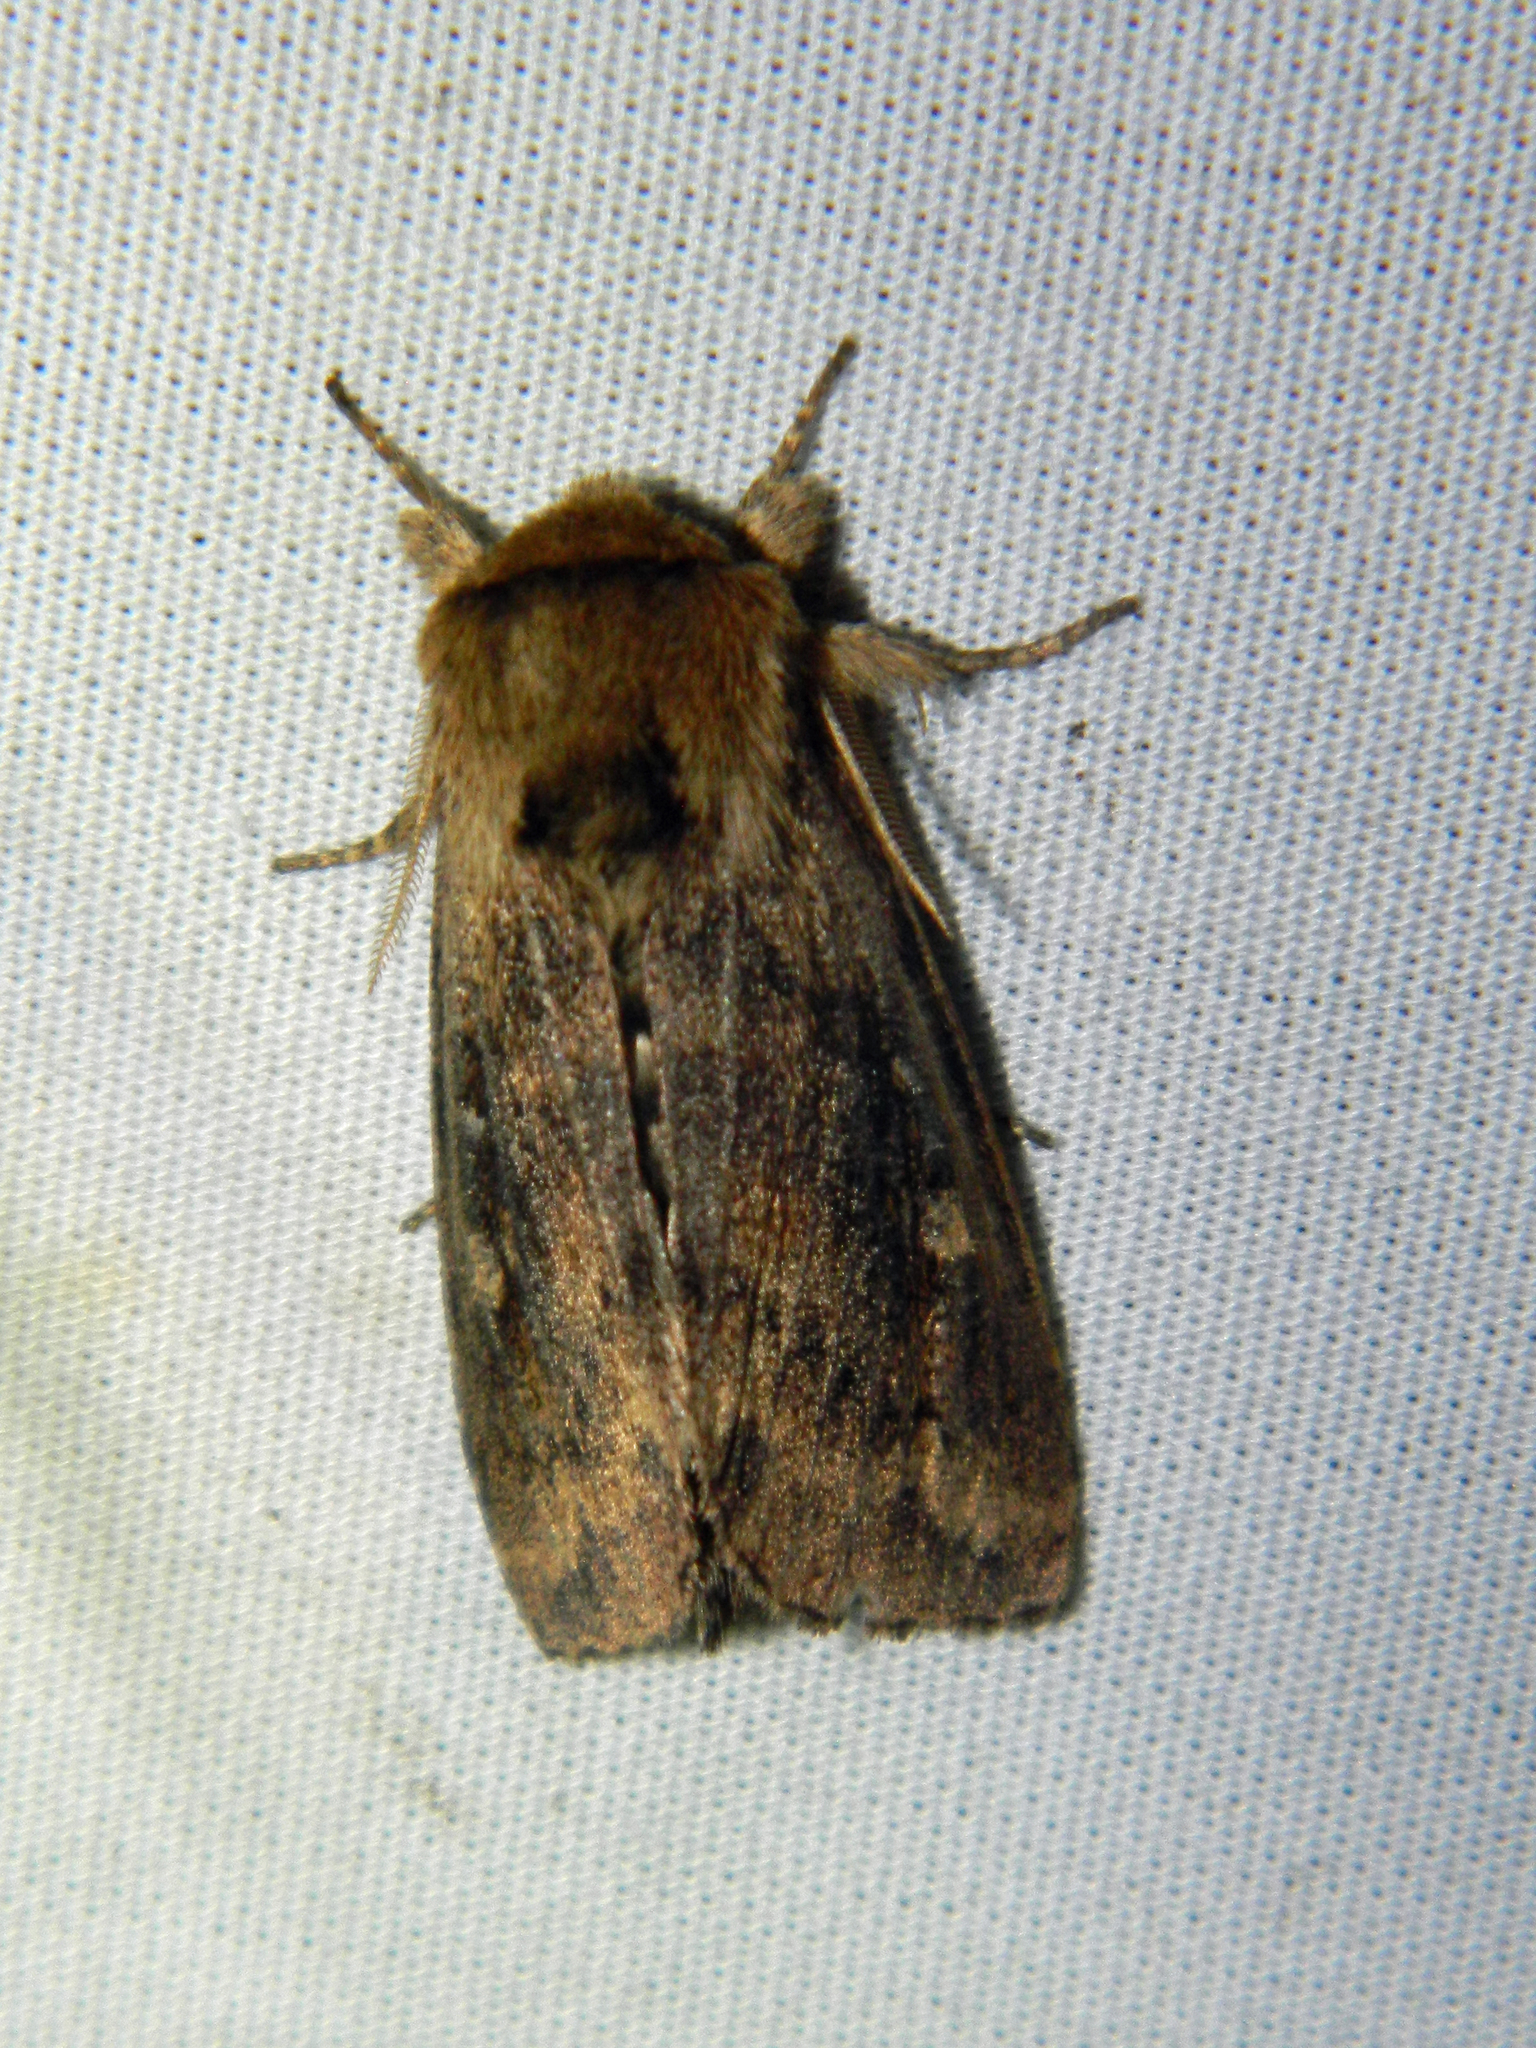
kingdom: Animalia
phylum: Arthropoda
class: Insecta
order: Lepidoptera
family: Noctuidae
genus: Bellura
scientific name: Bellura vulnifica
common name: Black-tailed diver moth
